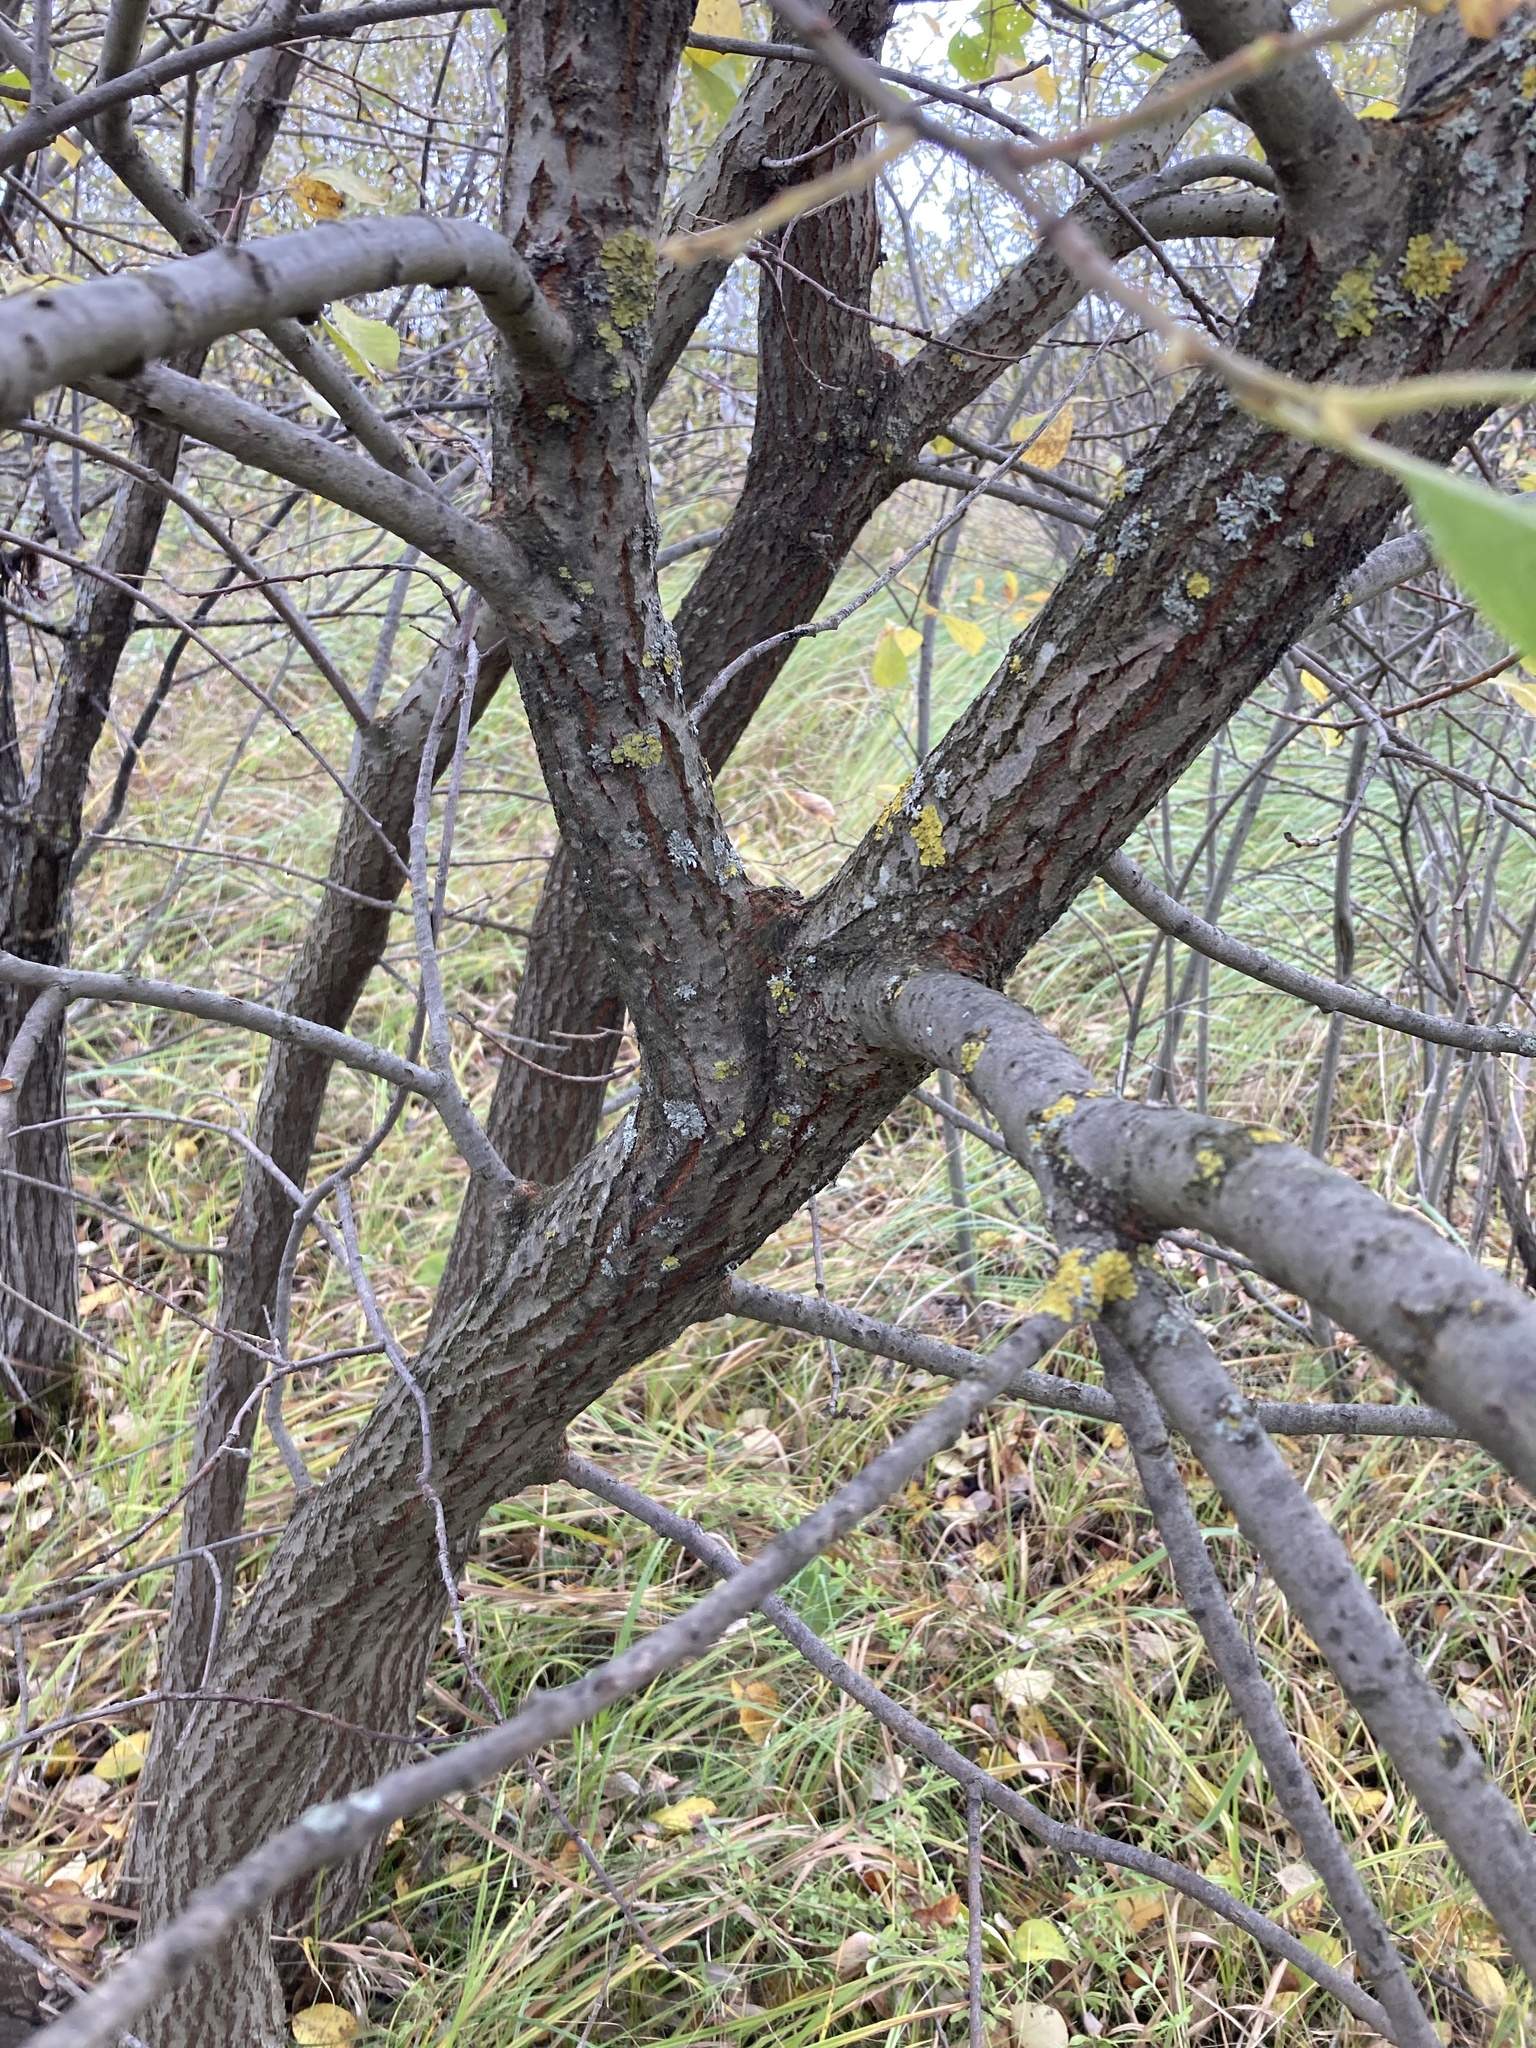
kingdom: Plantae
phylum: Tracheophyta
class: Magnoliopsida
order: Malpighiales
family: Salicaceae
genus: Salix
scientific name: Salix caprea
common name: Goat willow
